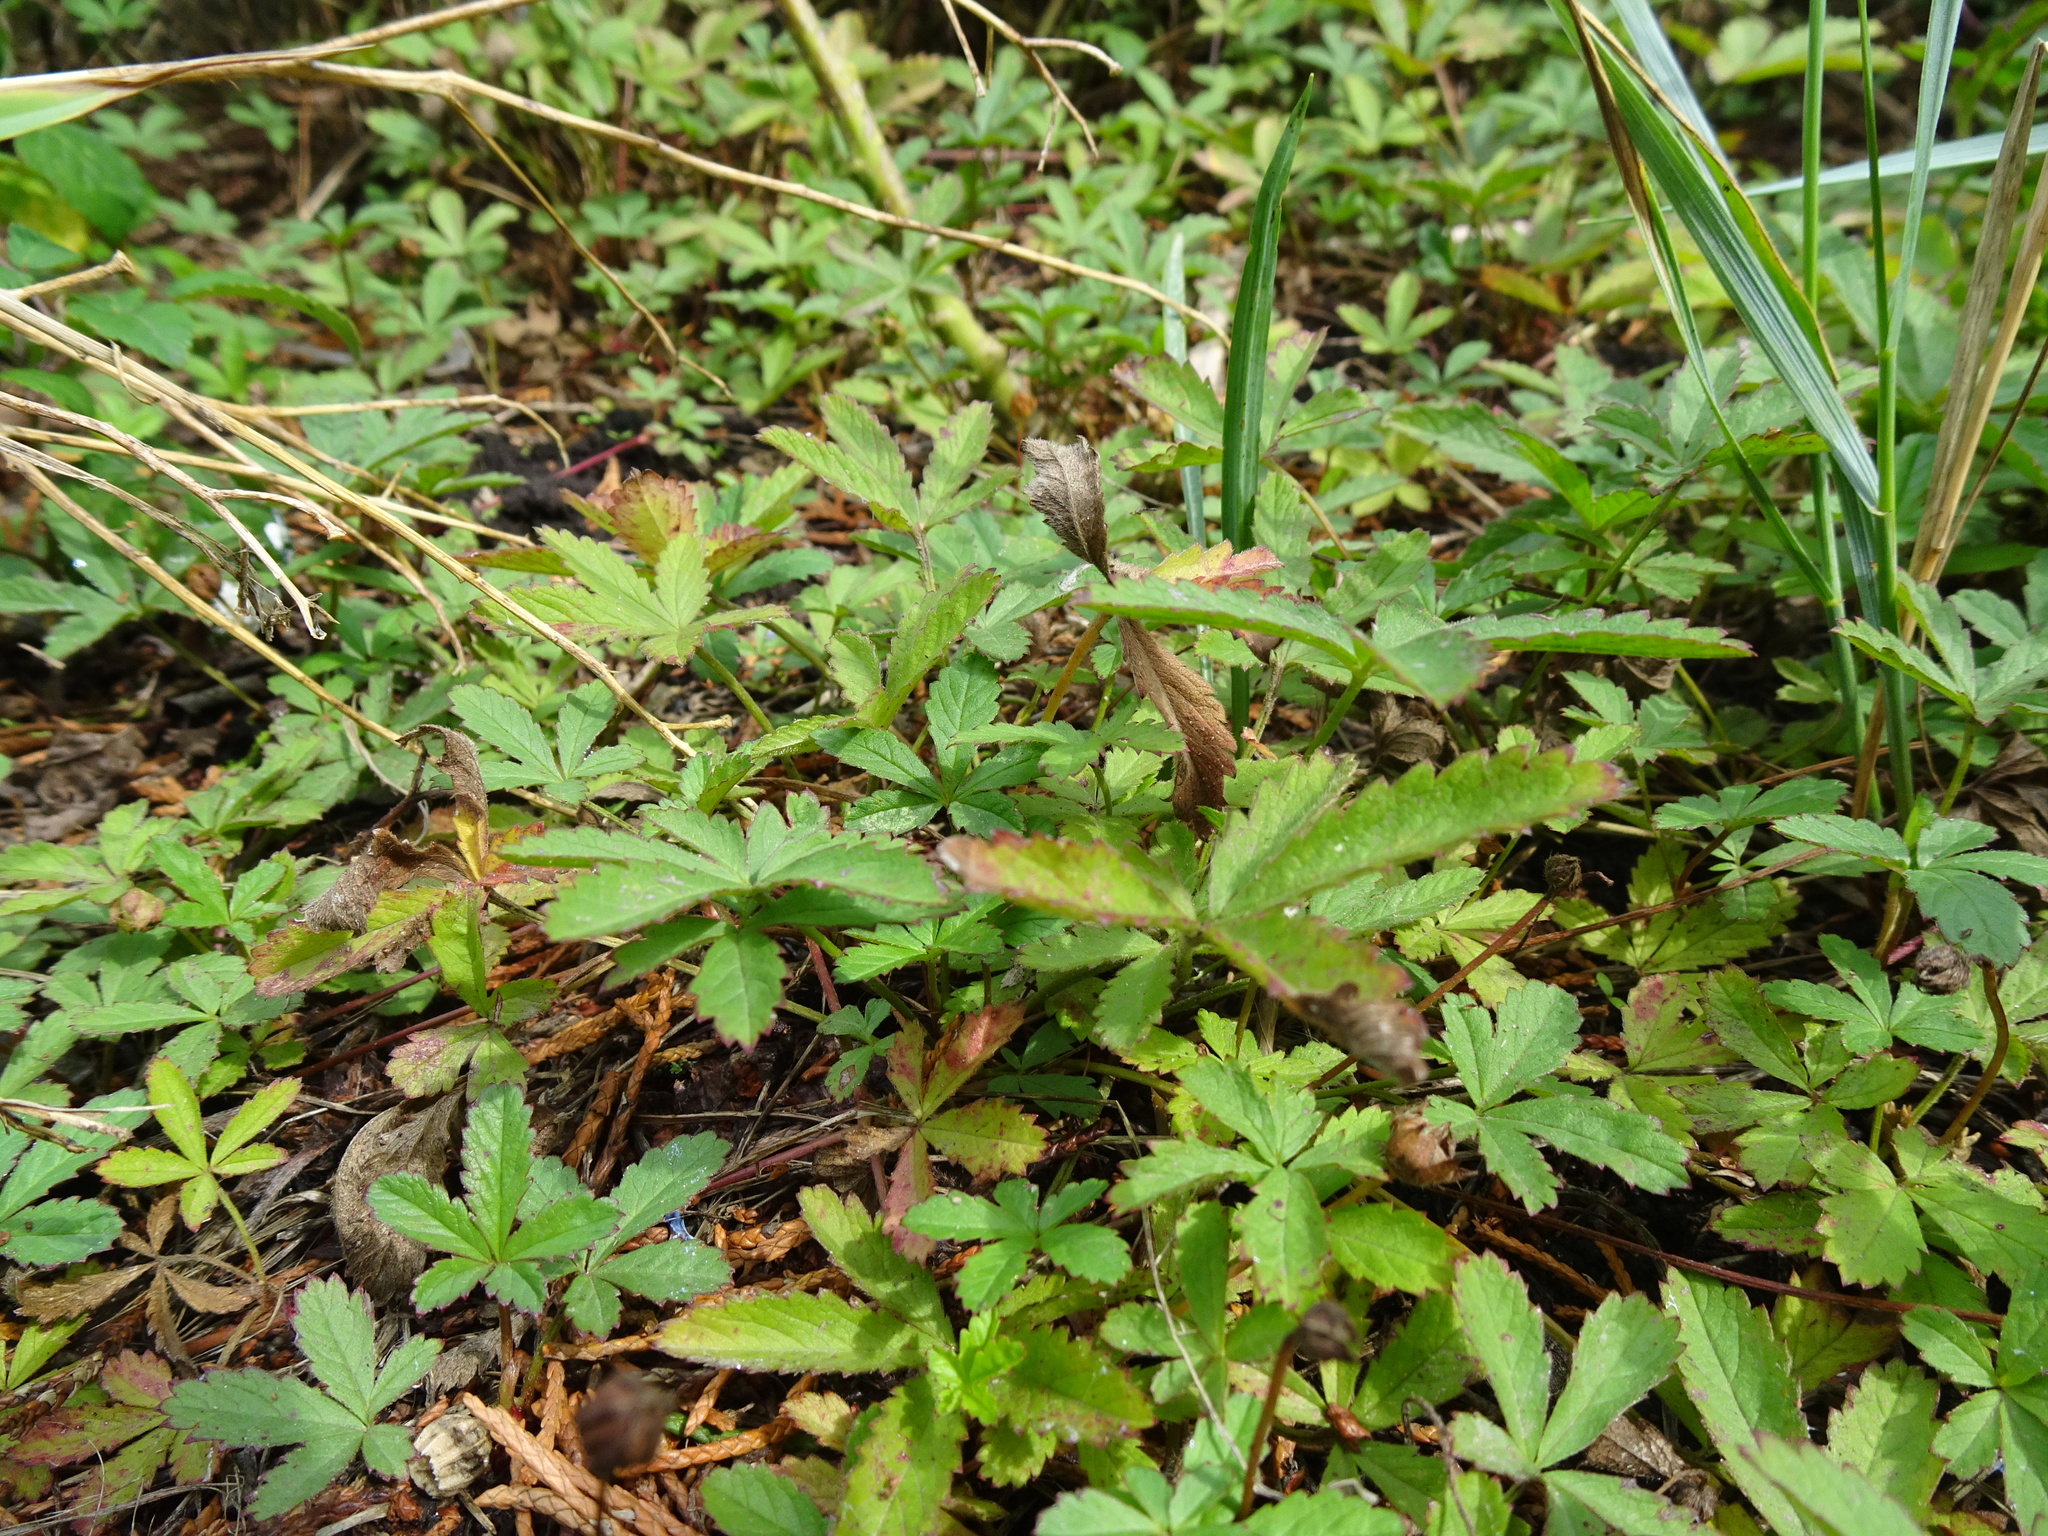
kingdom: Plantae
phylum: Tracheophyta
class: Magnoliopsida
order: Rosales
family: Rosaceae
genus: Potentilla
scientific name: Potentilla reptans
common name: Creeping cinquefoil
